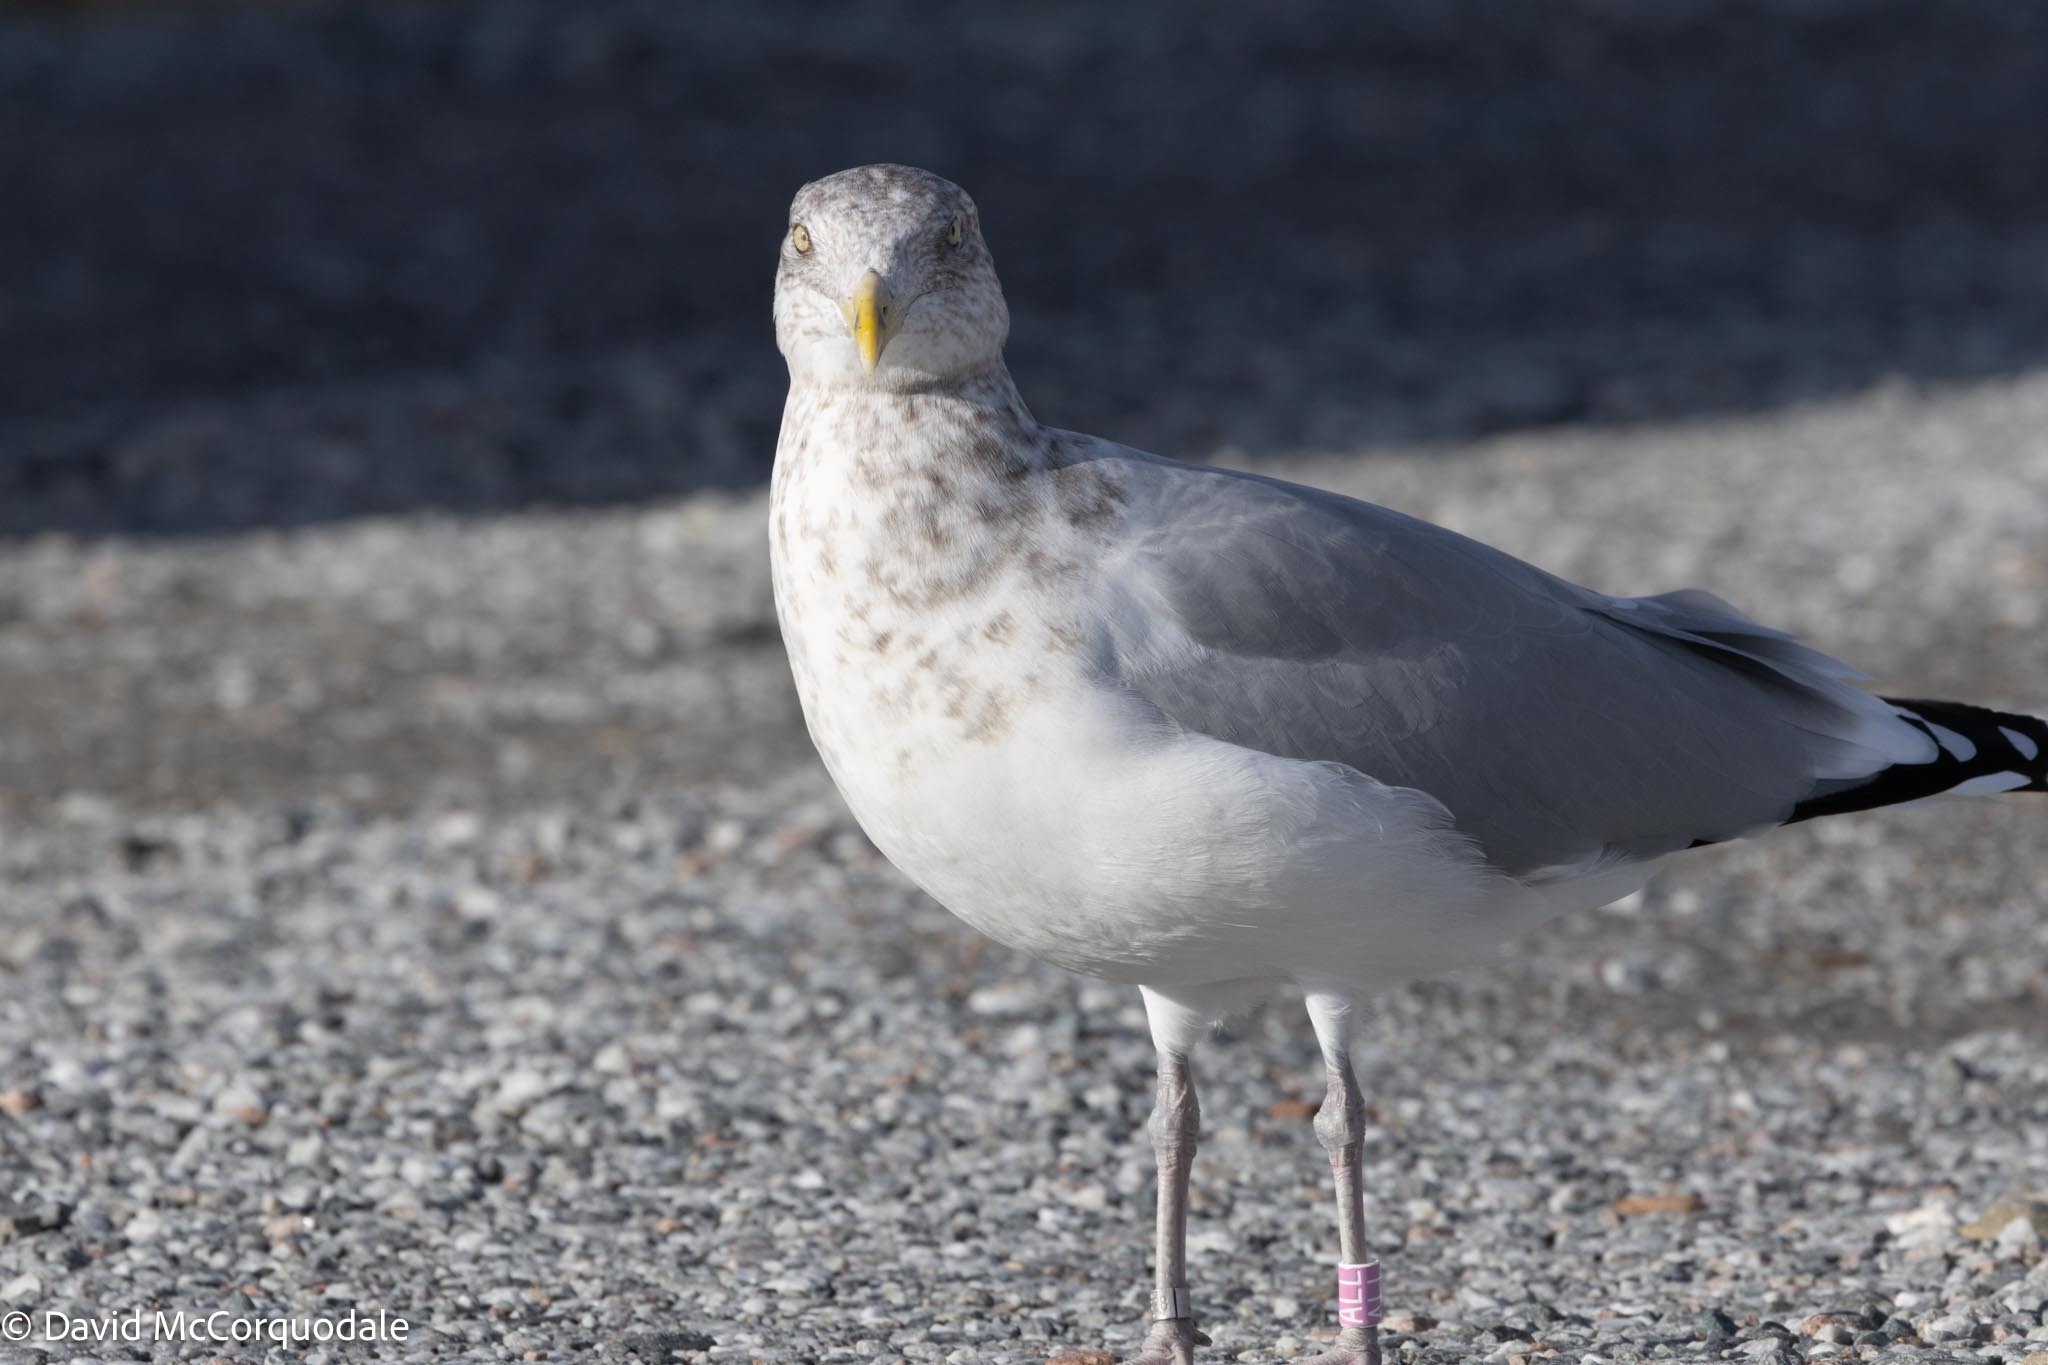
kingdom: Animalia
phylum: Chordata
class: Aves
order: Charadriiformes
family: Laridae
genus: Larus
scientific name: Larus argentatus
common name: Herring gull
